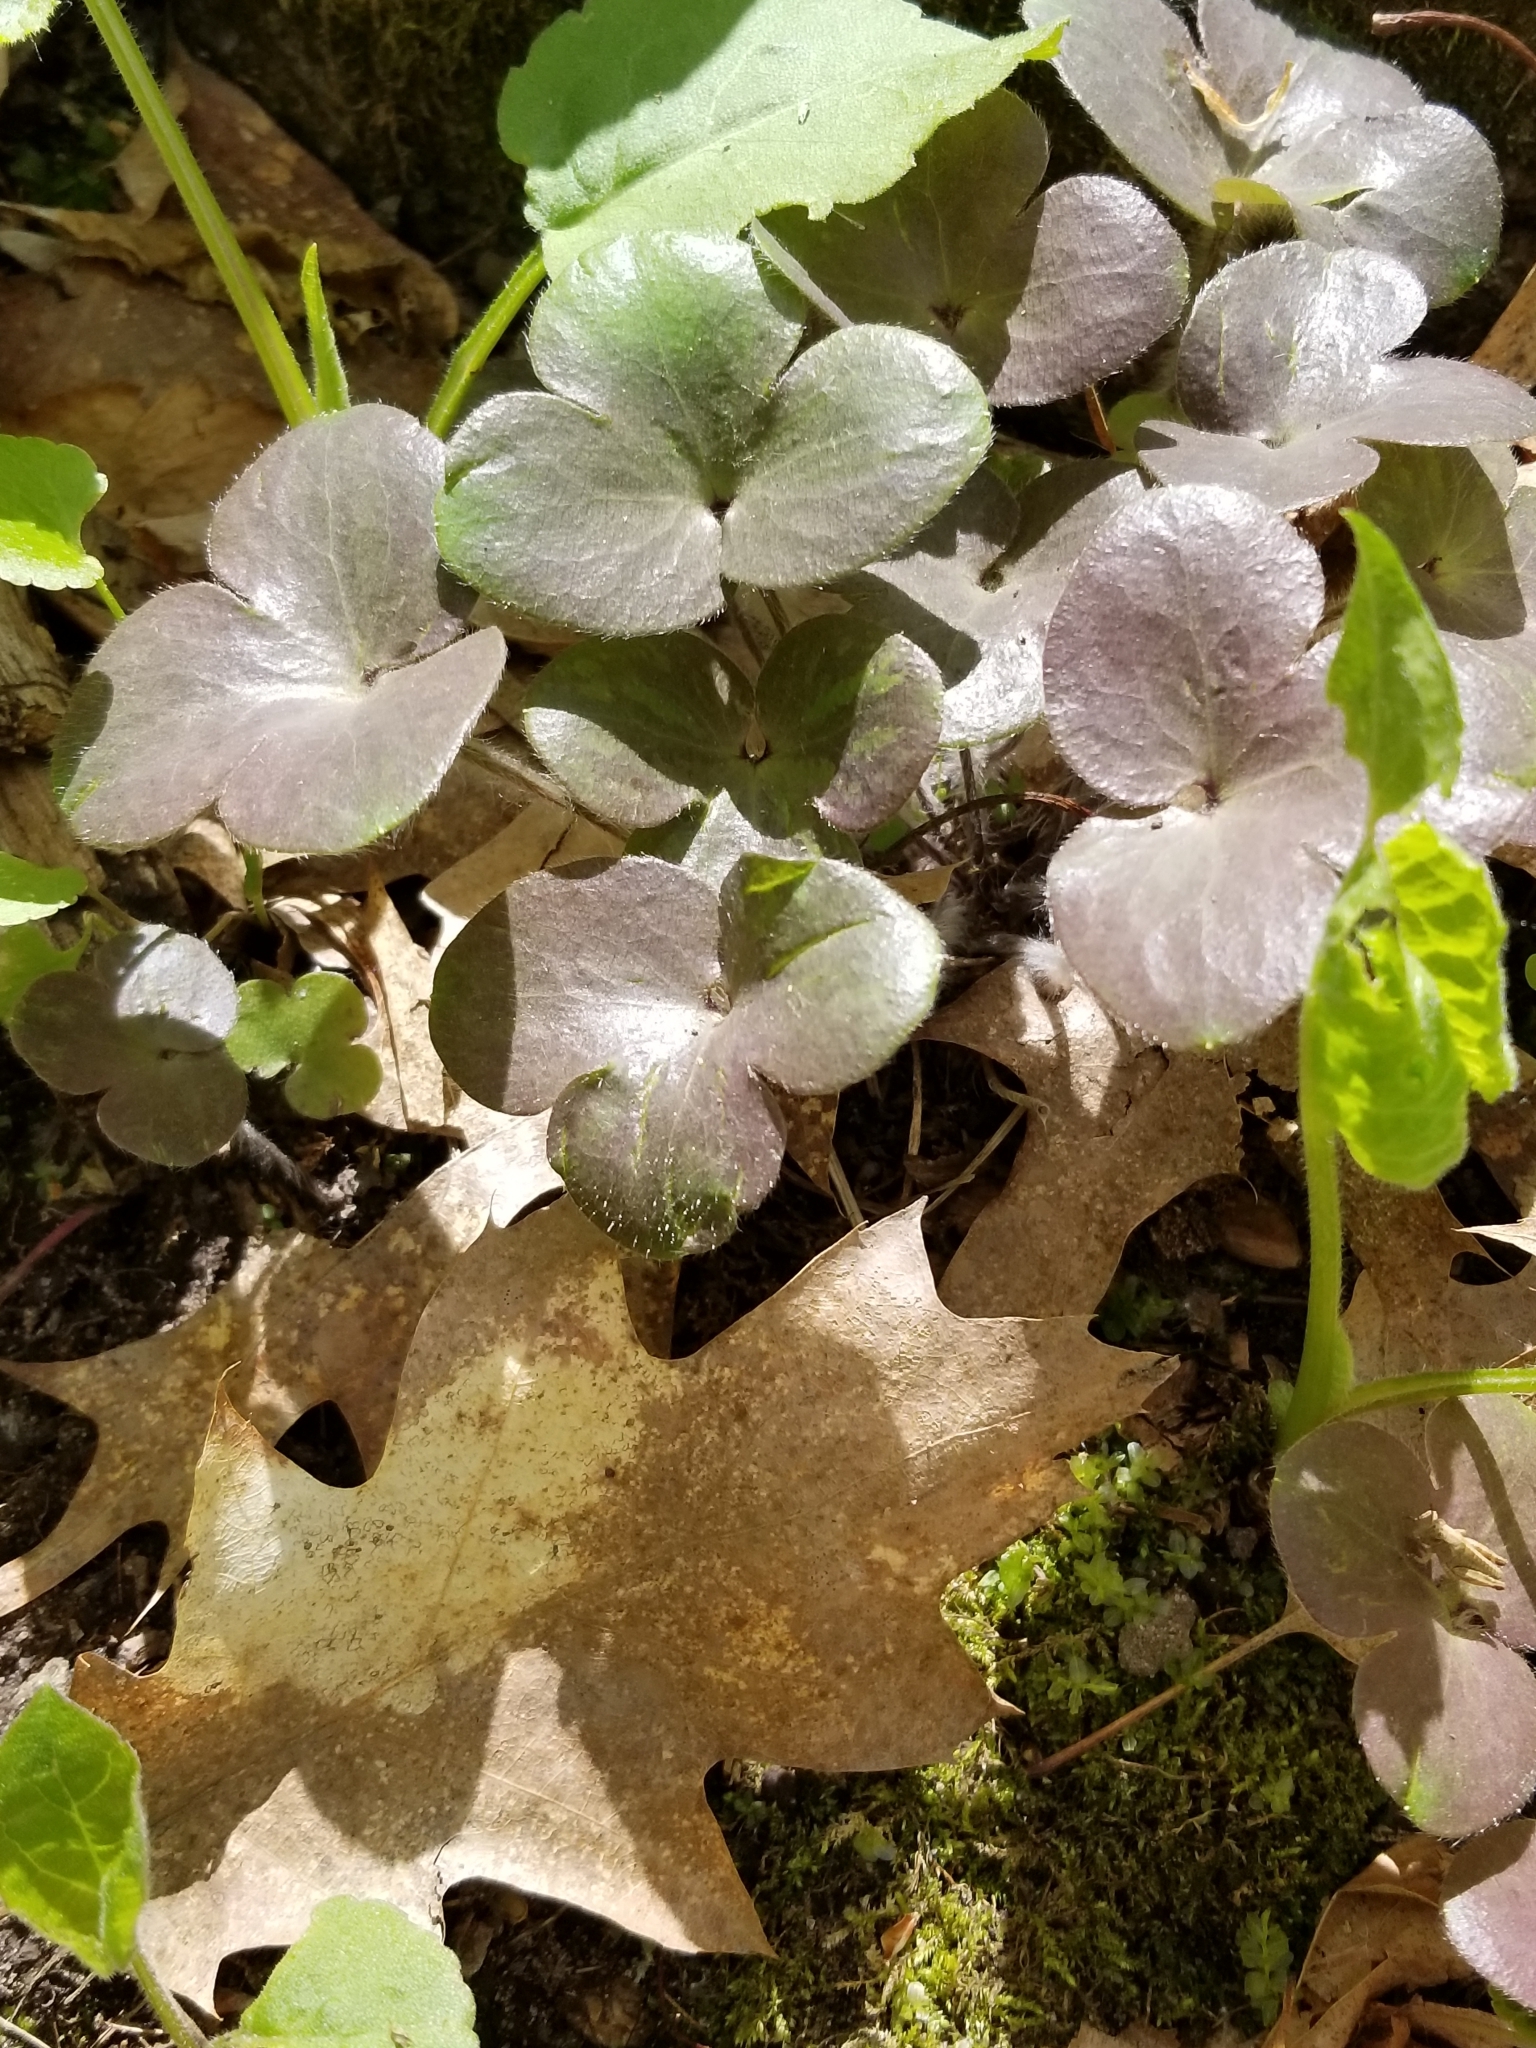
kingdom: Plantae
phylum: Tracheophyta
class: Magnoliopsida
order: Ranunculales
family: Ranunculaceae
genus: Hepatica
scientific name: Hepatica americana
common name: American hepatica
